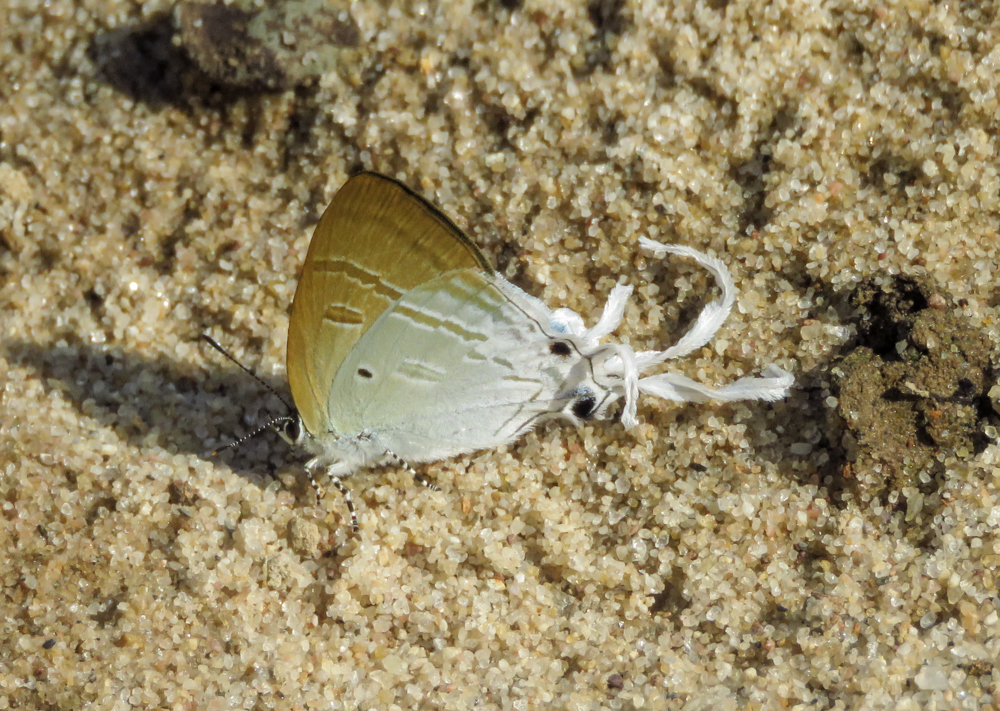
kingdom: Animalia
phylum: Arthropoda
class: Insecta
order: Lepidoptera
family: Lycaenidae
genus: Zeltus
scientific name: Zeltus amasa
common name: Fluffy tit
